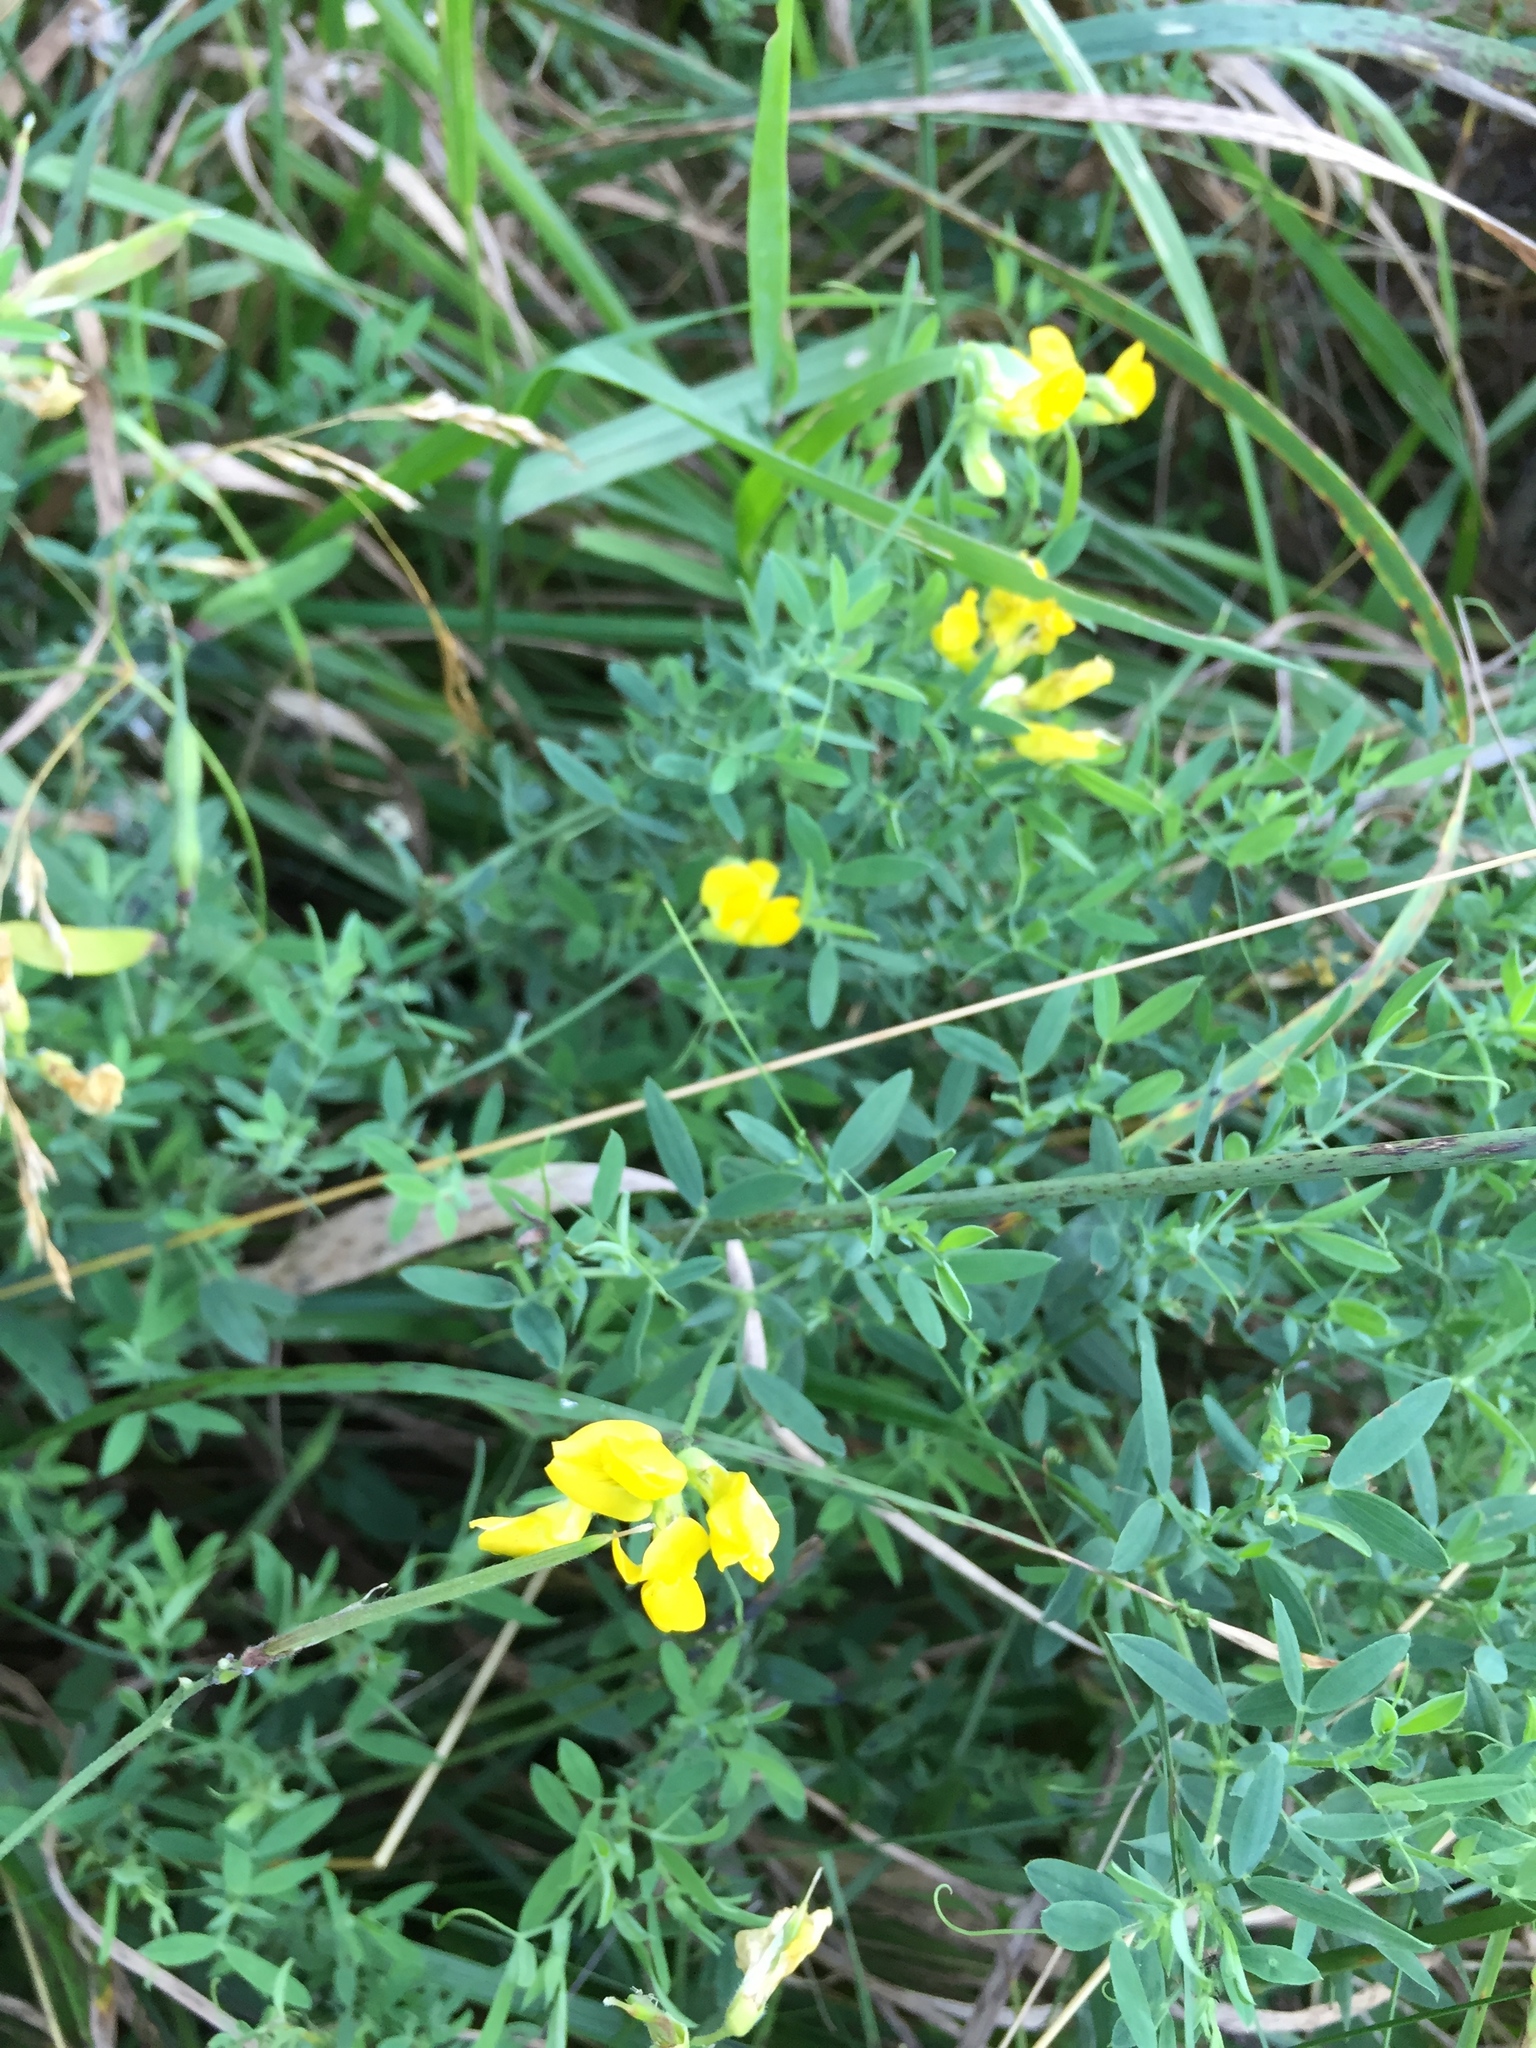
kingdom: Plantae
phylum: Tracheophyta
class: Magnoliopsida
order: Fabales
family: Fabaceae
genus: Lathyrus
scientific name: Lathyrus pratensis
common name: Meadow vetchling
